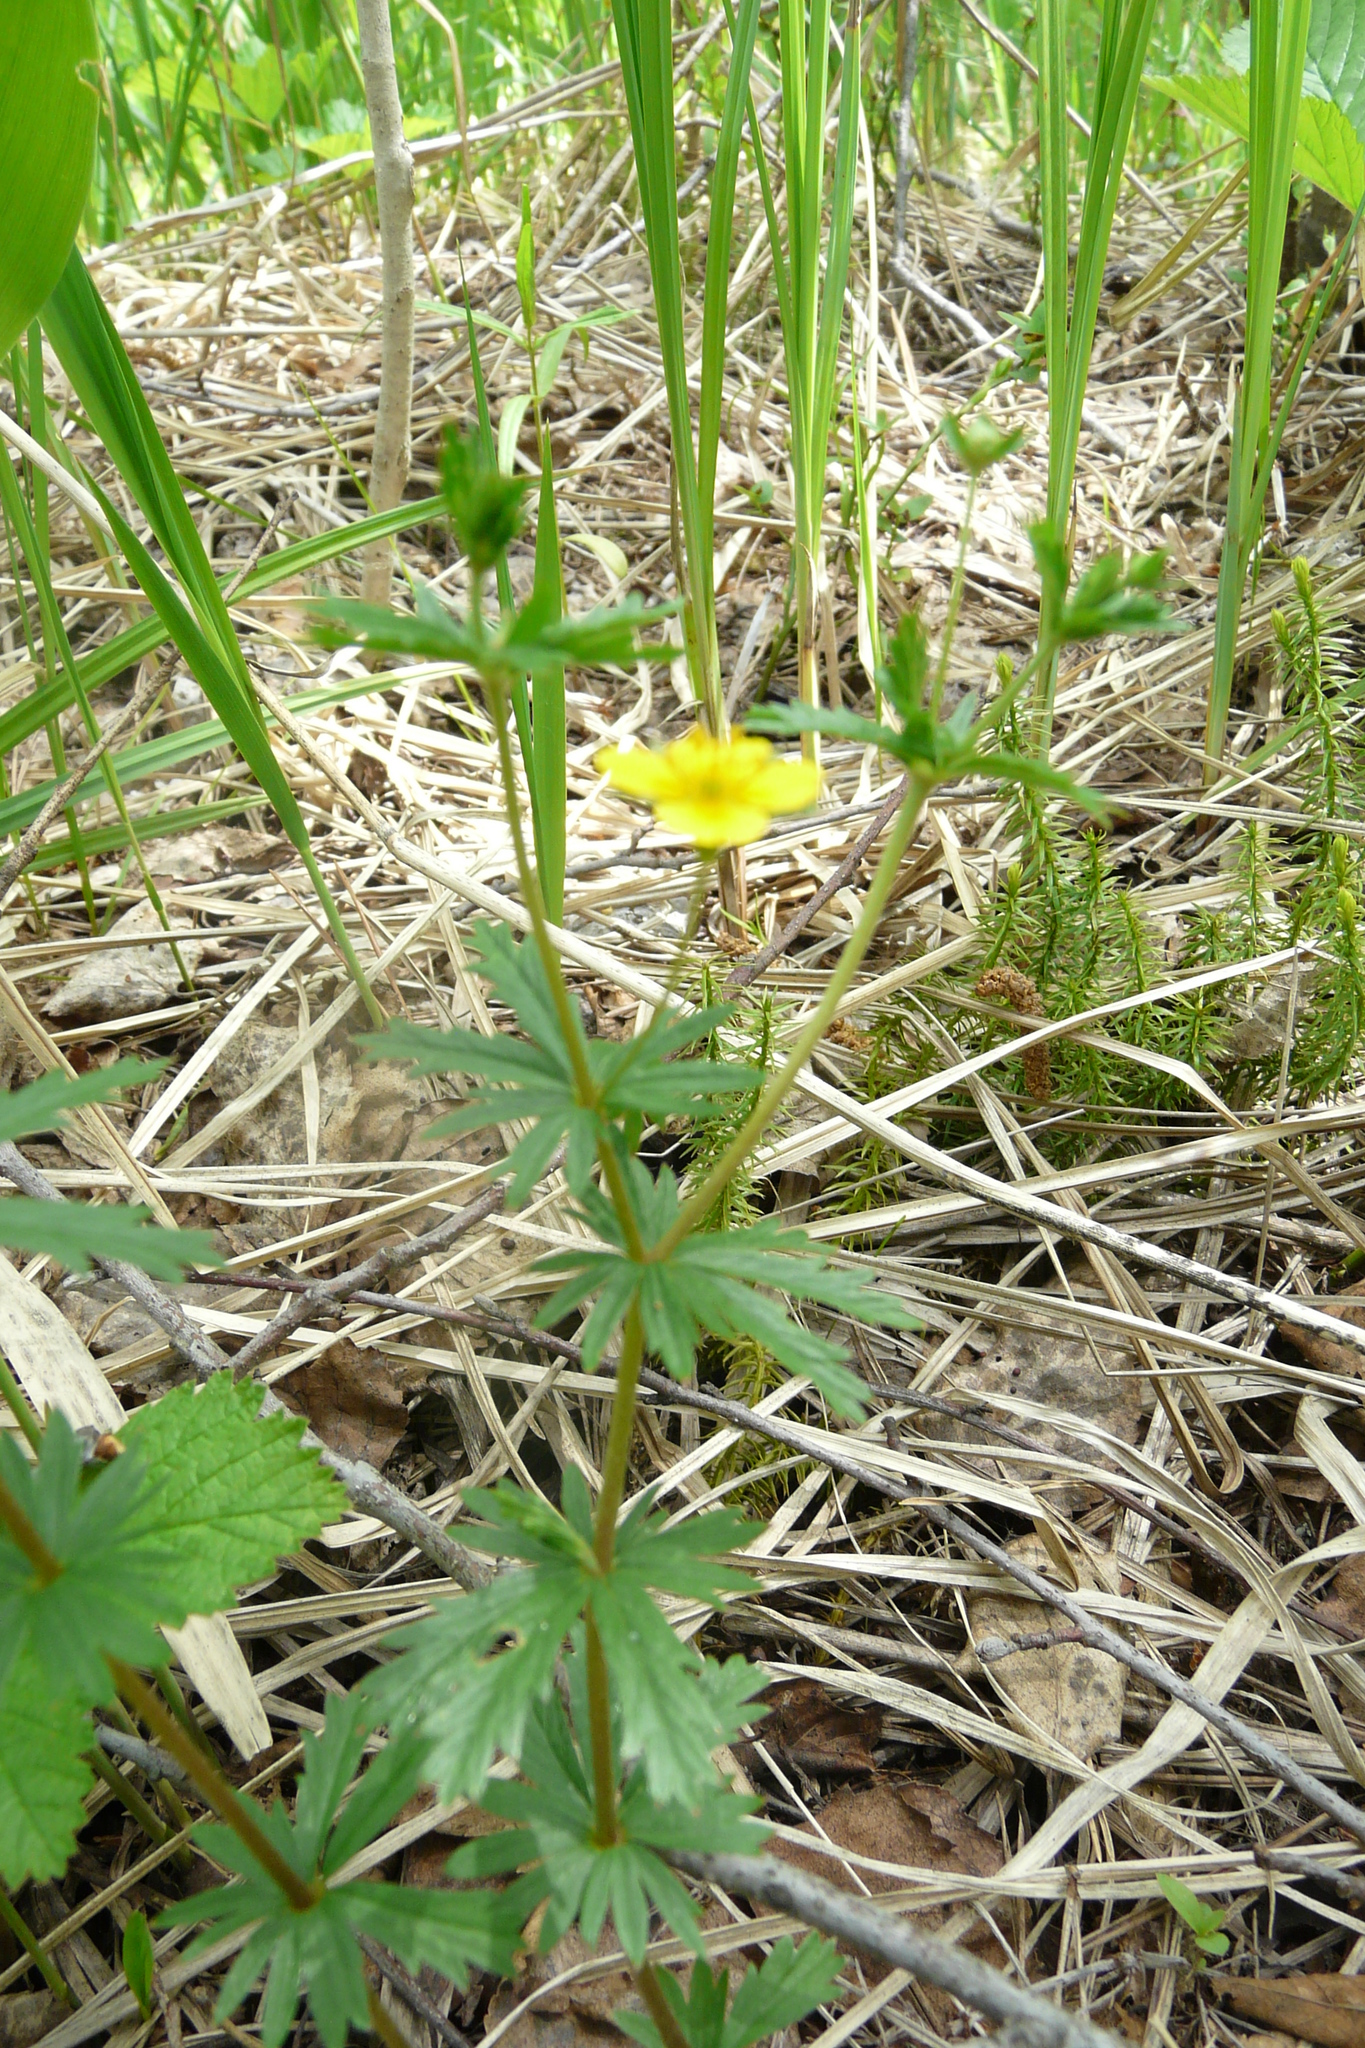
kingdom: Plantae
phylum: Tracheophyta
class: Magnoliopsida
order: Rosales
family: Rosaceae
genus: Potentilla
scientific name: Potentilla erecta
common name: Tormentil
